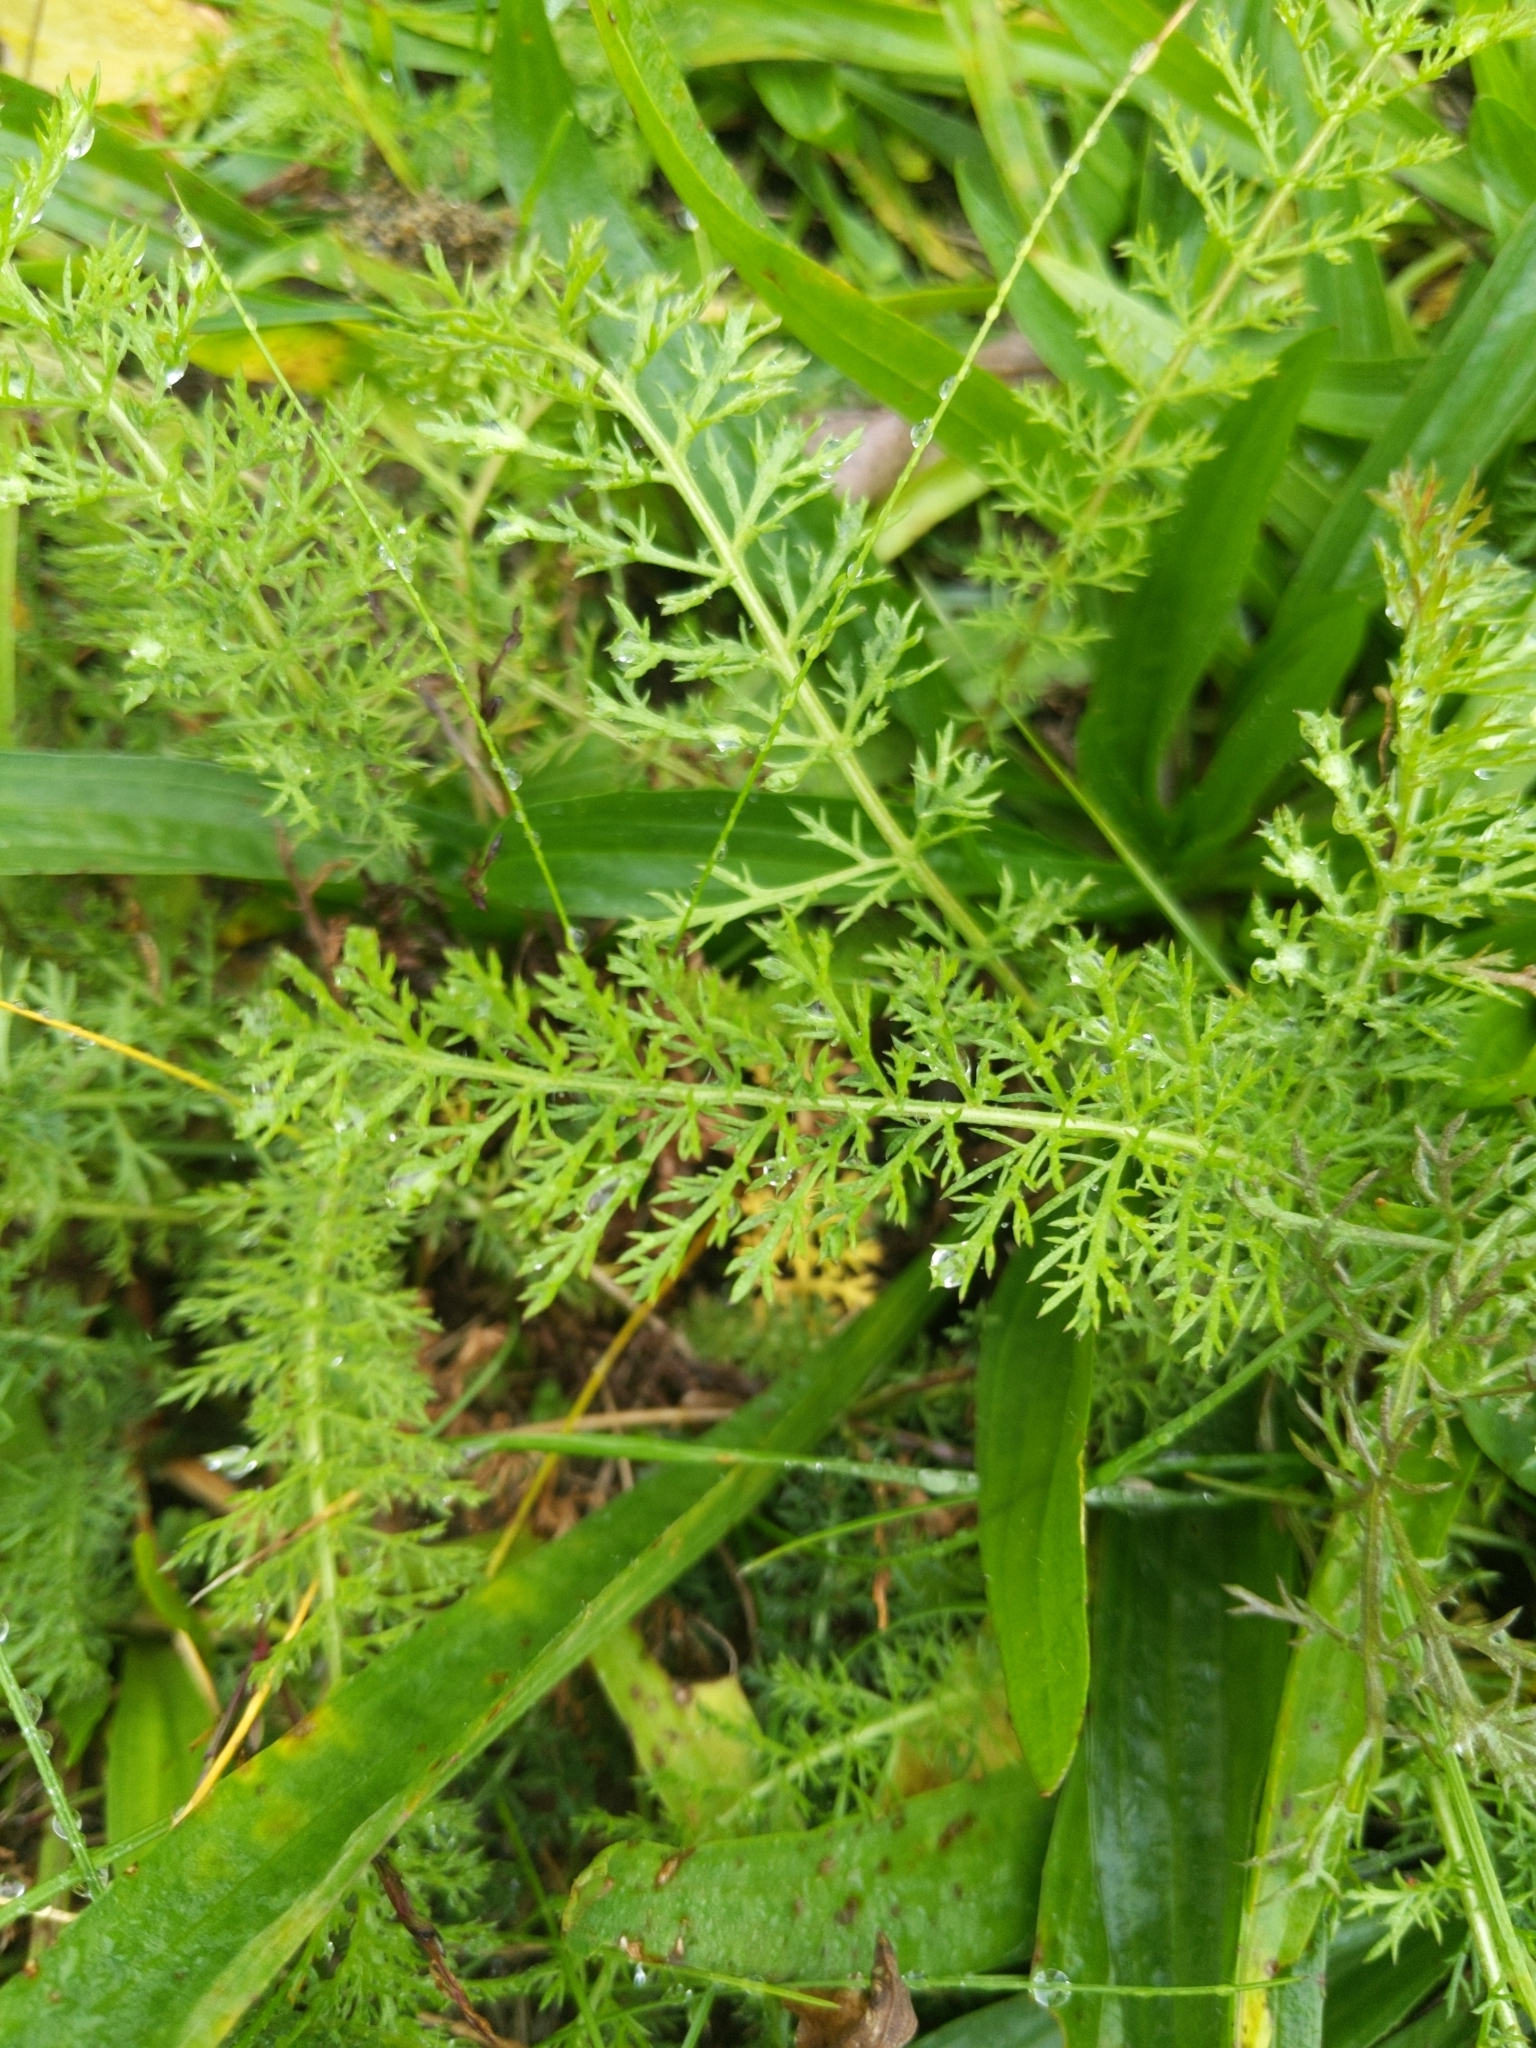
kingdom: Plantae
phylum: Tracheophyta
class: Magnoliopsida
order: Asterales
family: Asteraceae
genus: Achillea
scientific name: Achillea millefolium
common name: Yarrow
